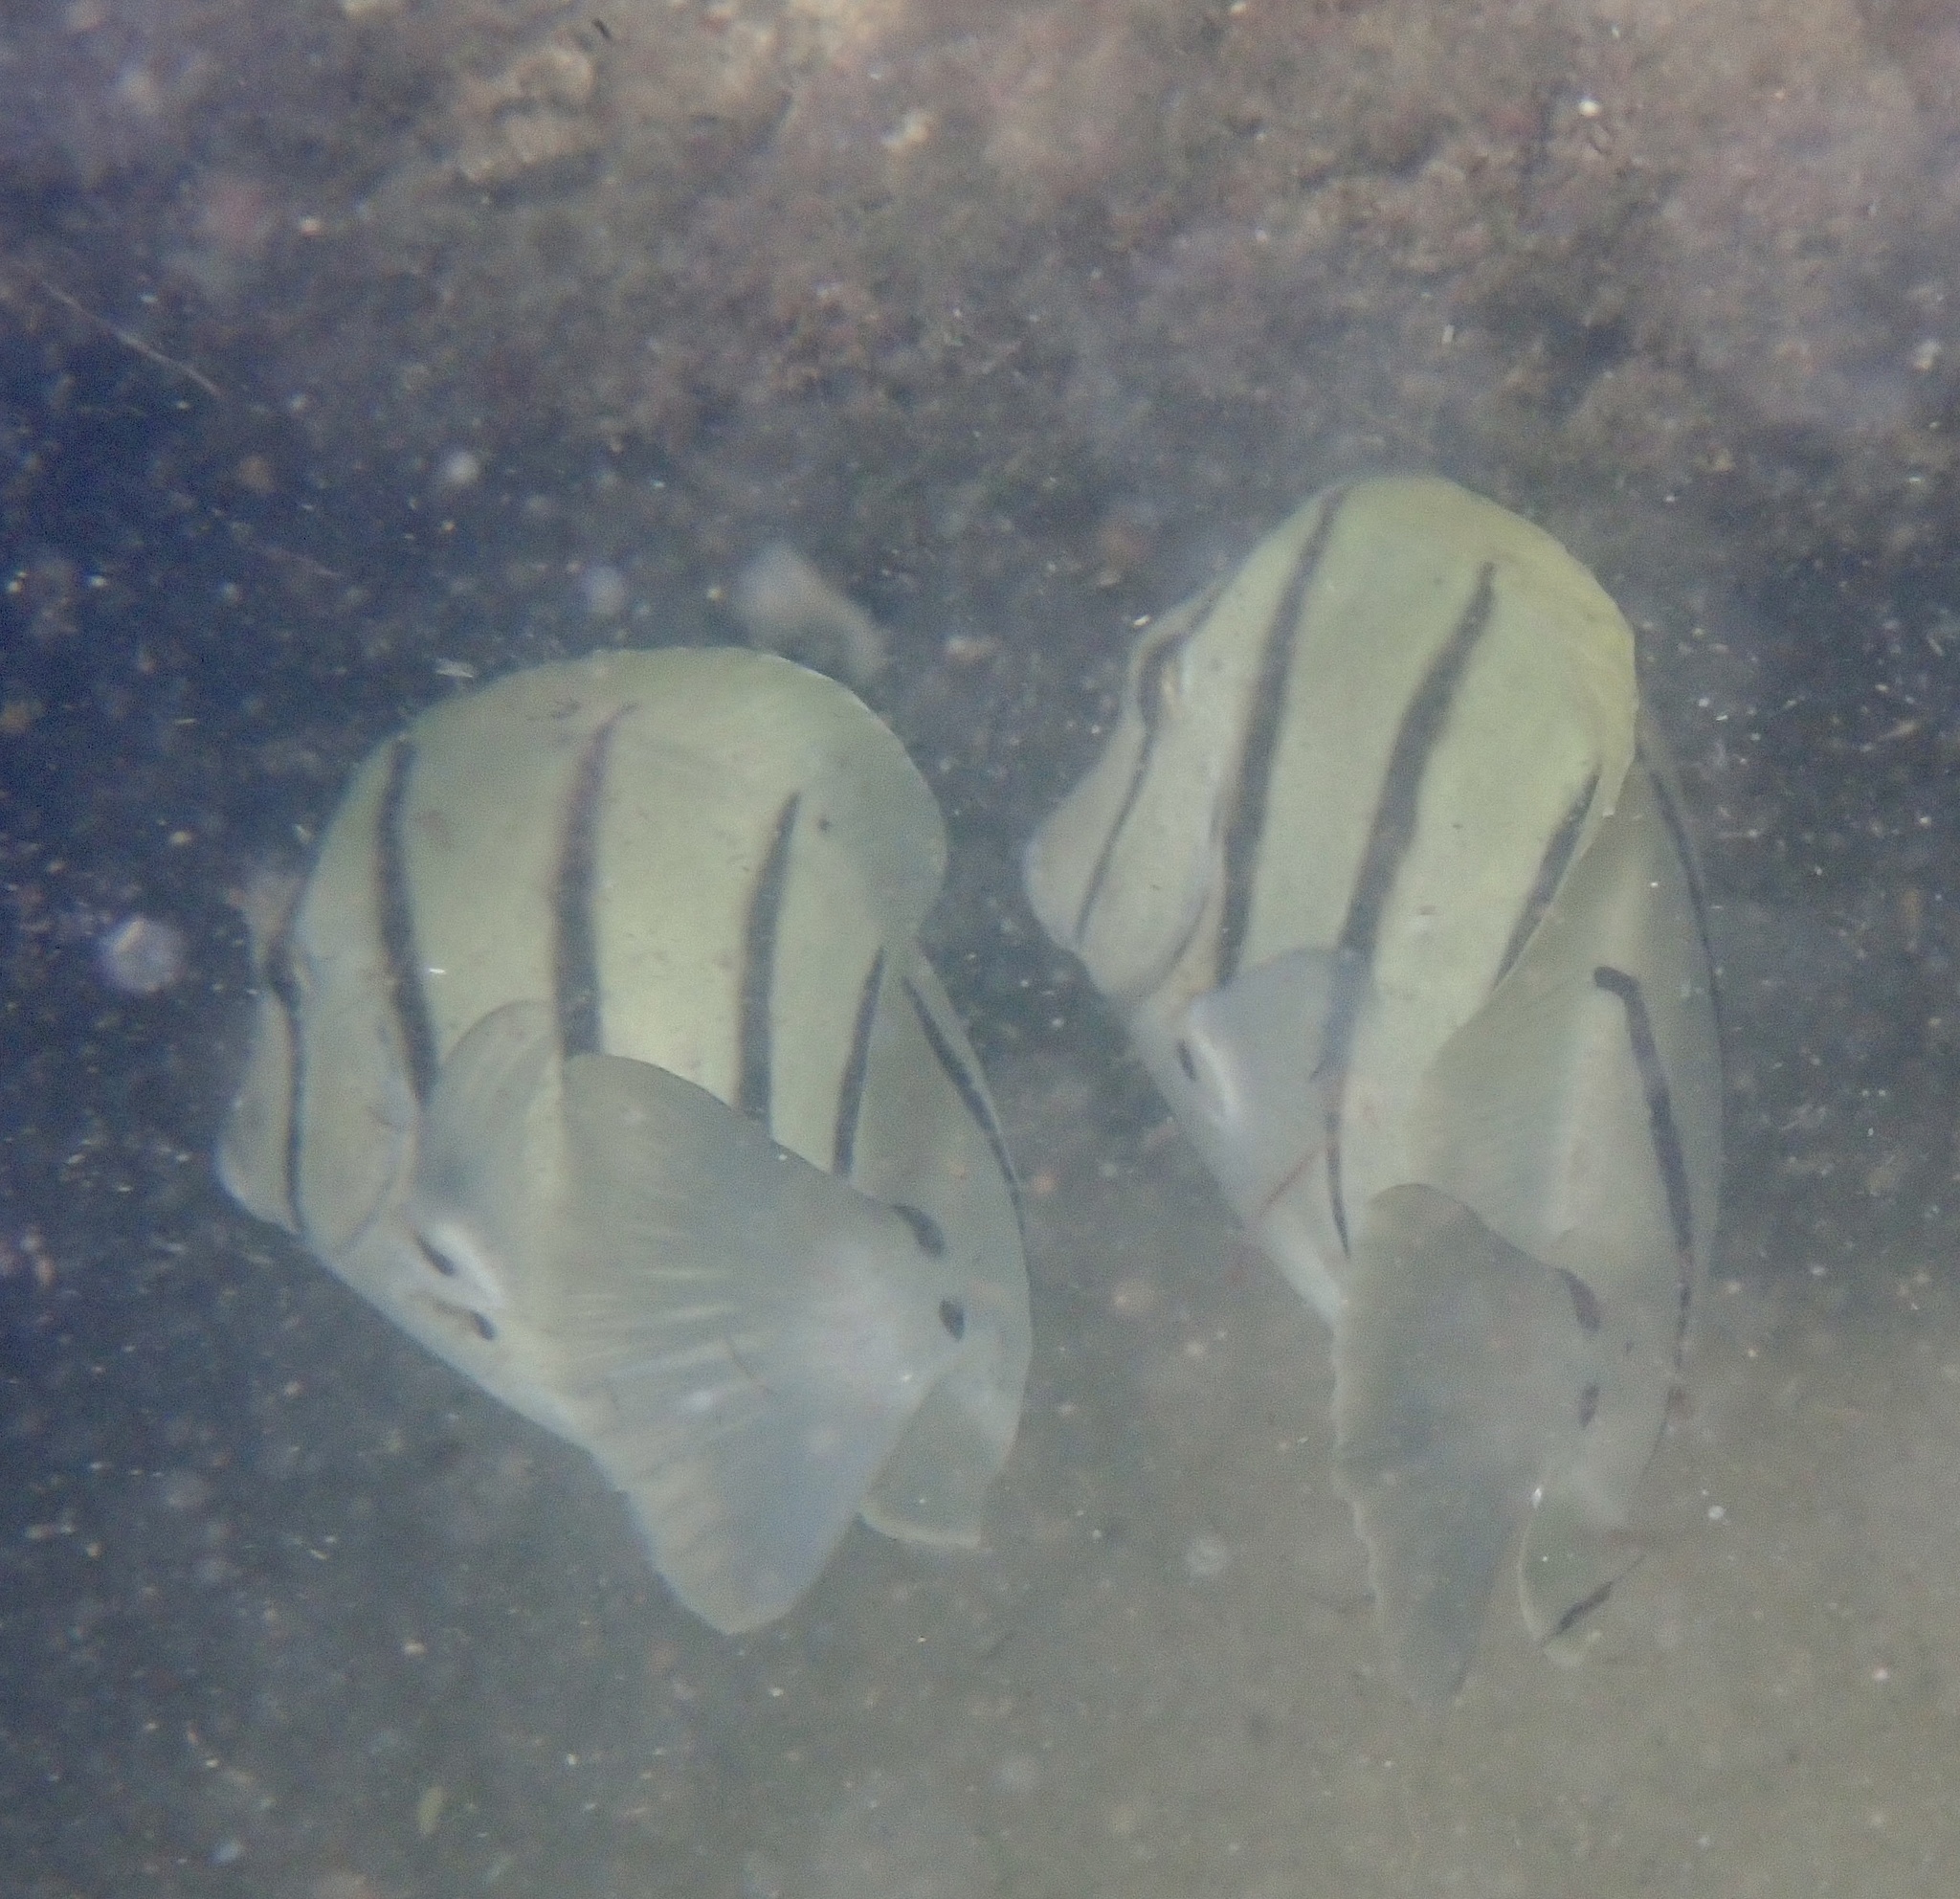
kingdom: Animalia
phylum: Chordata
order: Perciformes
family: Acanthuridae
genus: Acanthurus
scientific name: Acanthurus triostegus
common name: Convict surgeonfish
